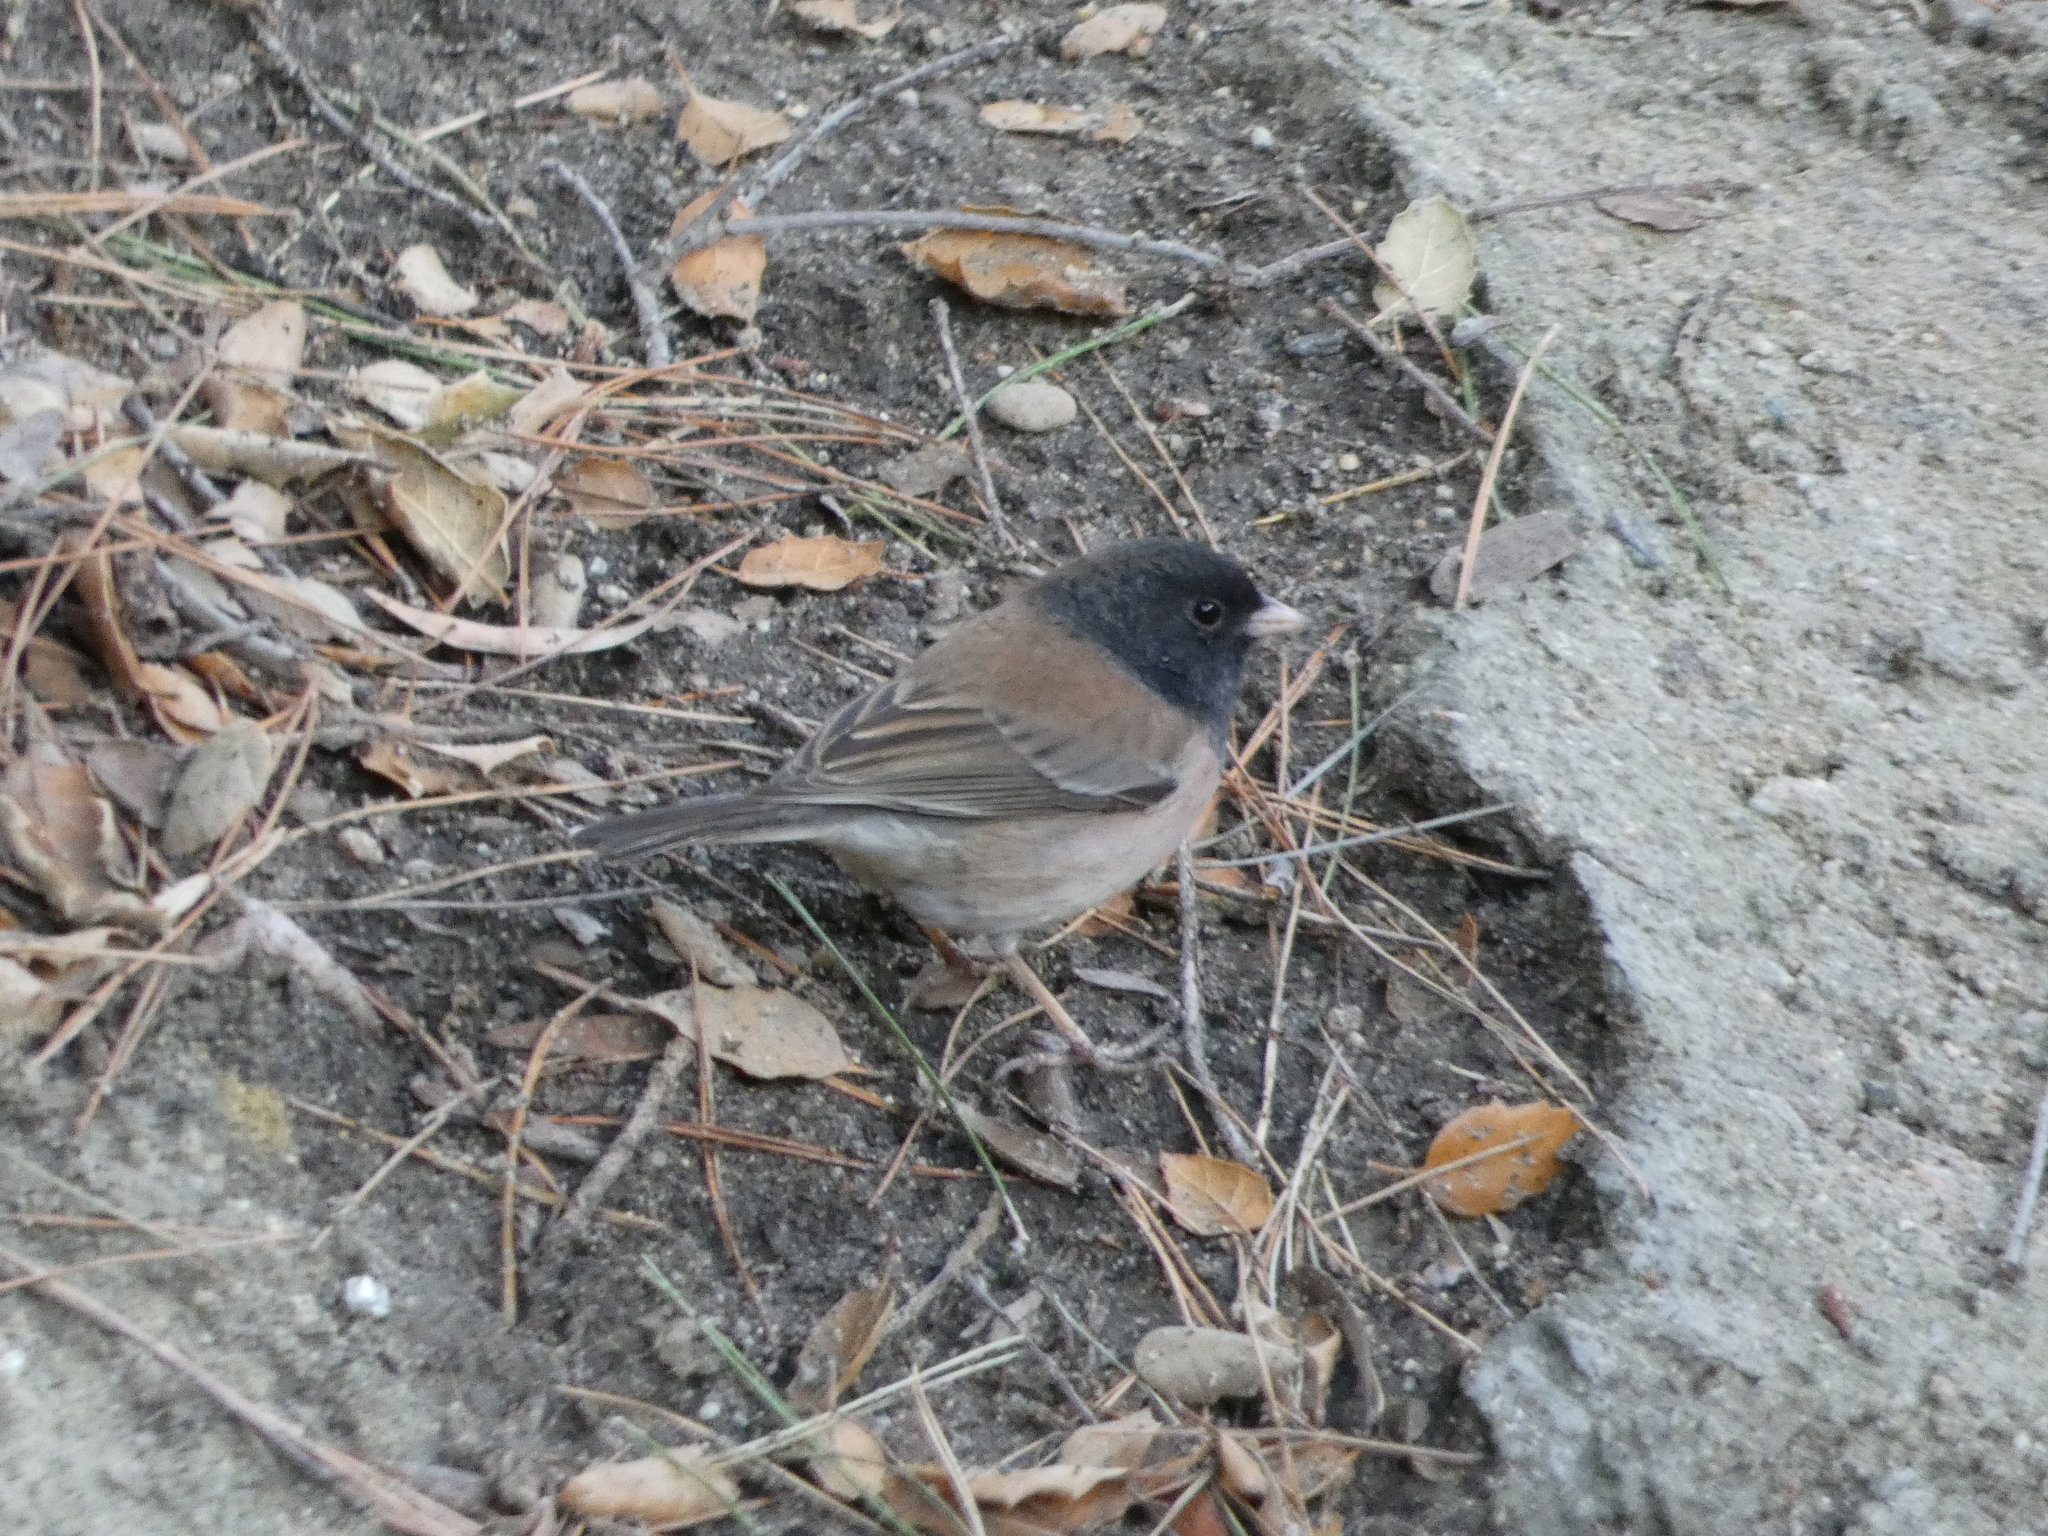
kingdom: Animalia
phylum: Chordata
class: Aves
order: Passeriformes
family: Passerellidae
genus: Junco
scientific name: Junco hyemalis
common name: Dark-eyed junco
